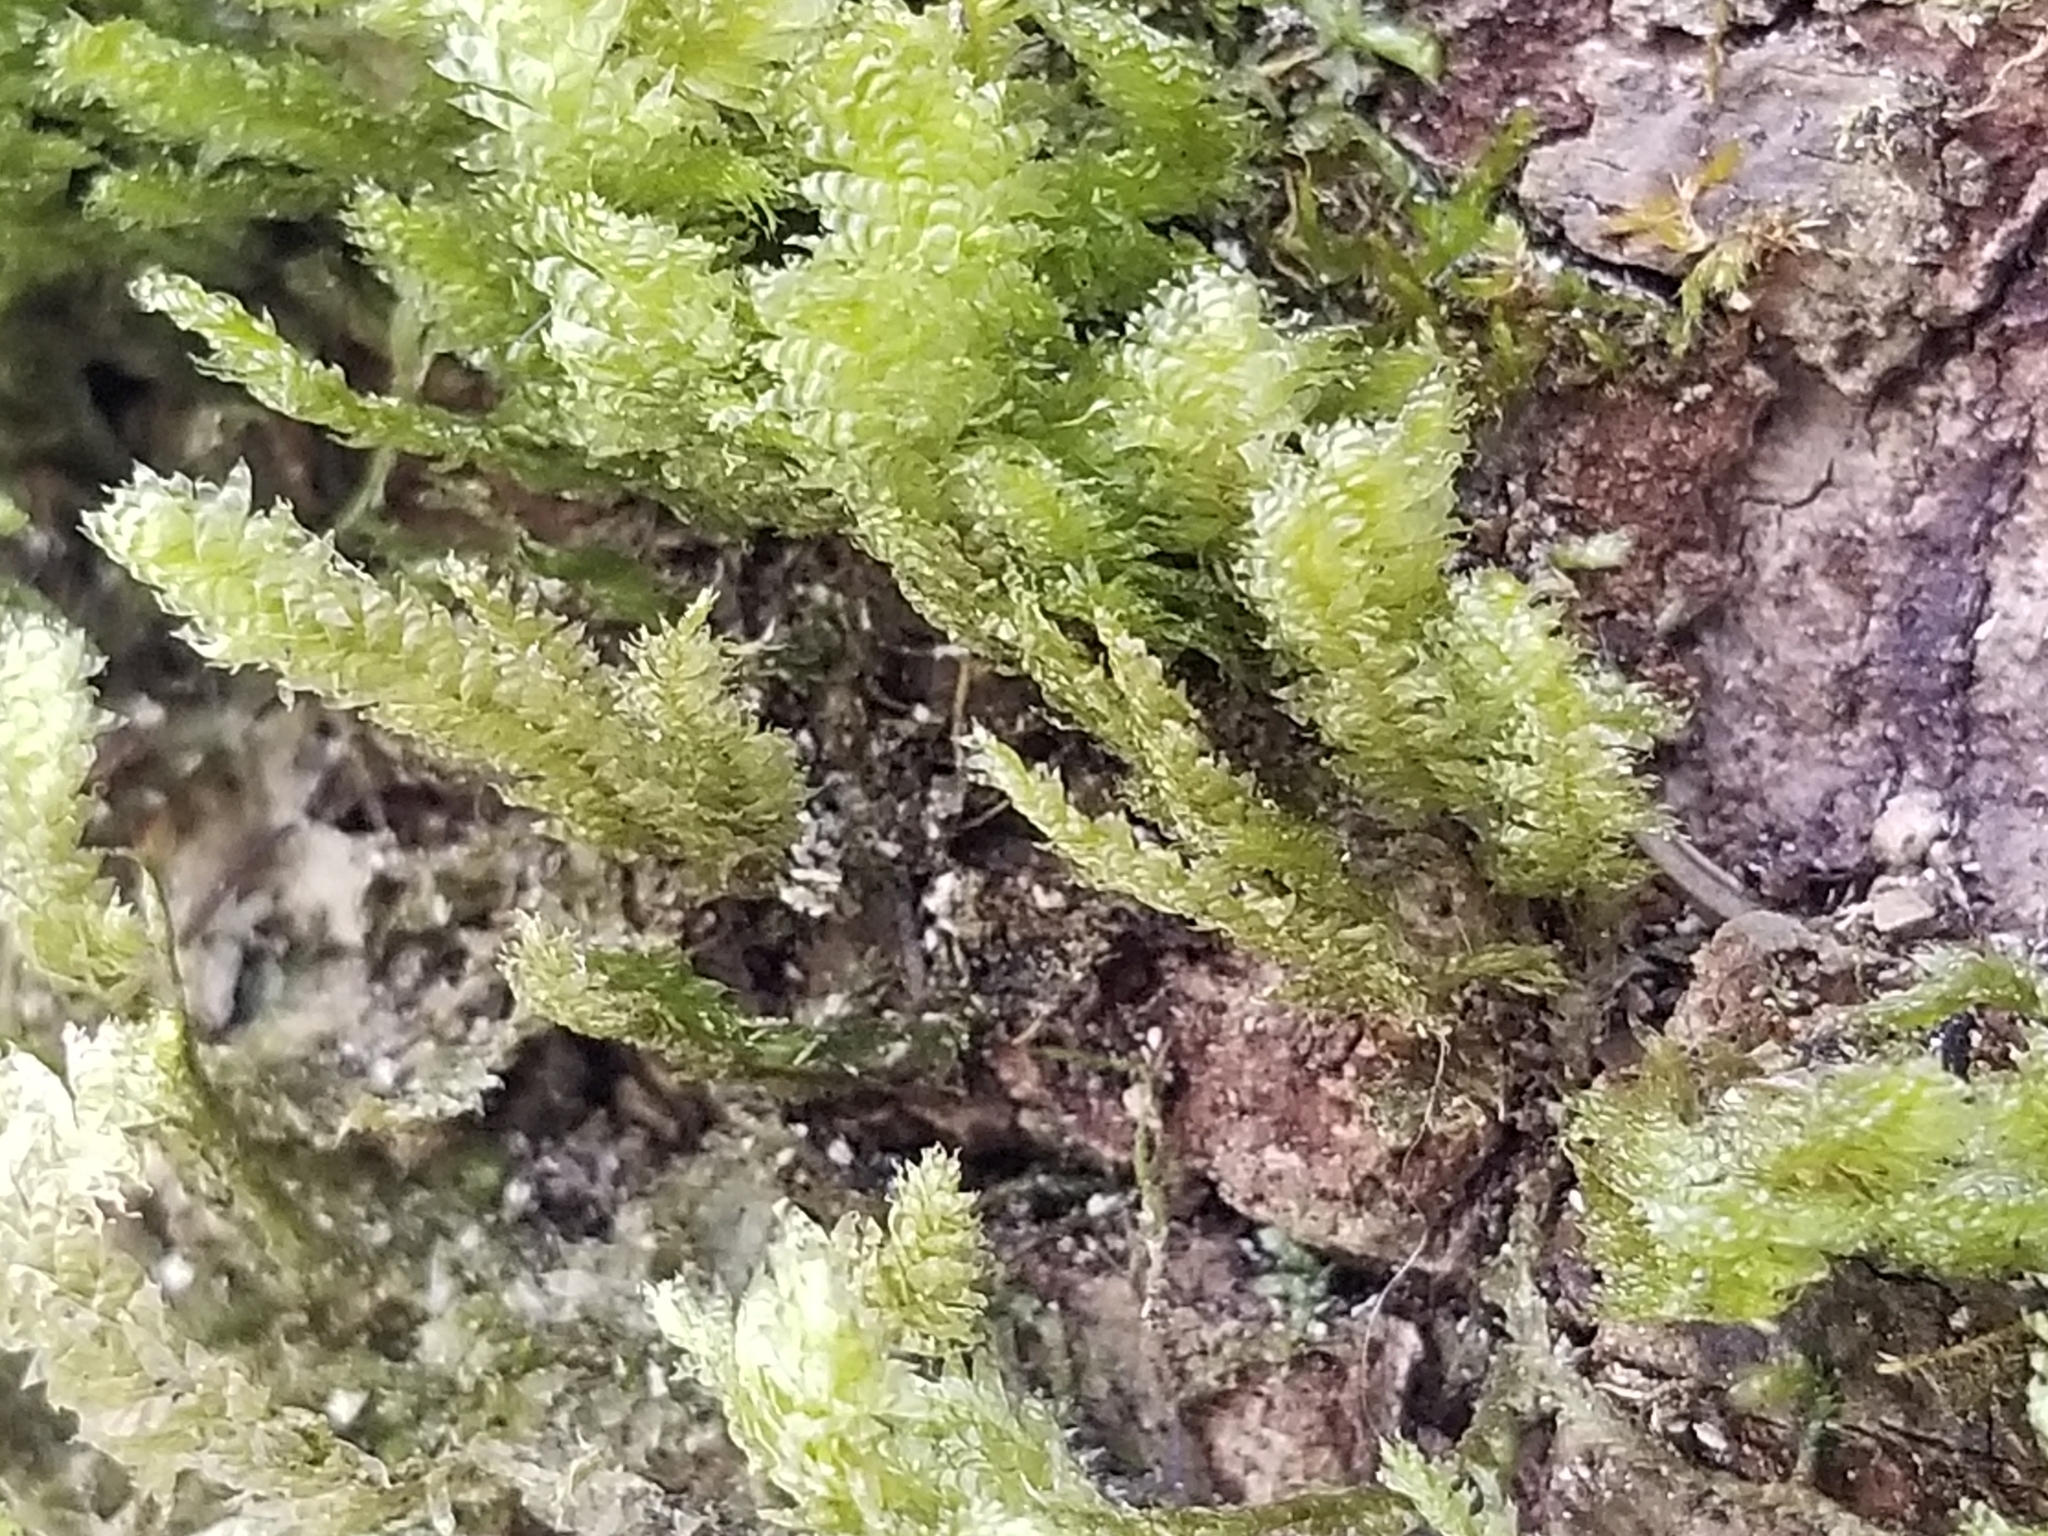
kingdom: Plantae
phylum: Bryophyta
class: Bryopsida
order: Hypnales
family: Neckeraceae
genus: Neckera
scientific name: Neckera pennata
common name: Feathery neckera
